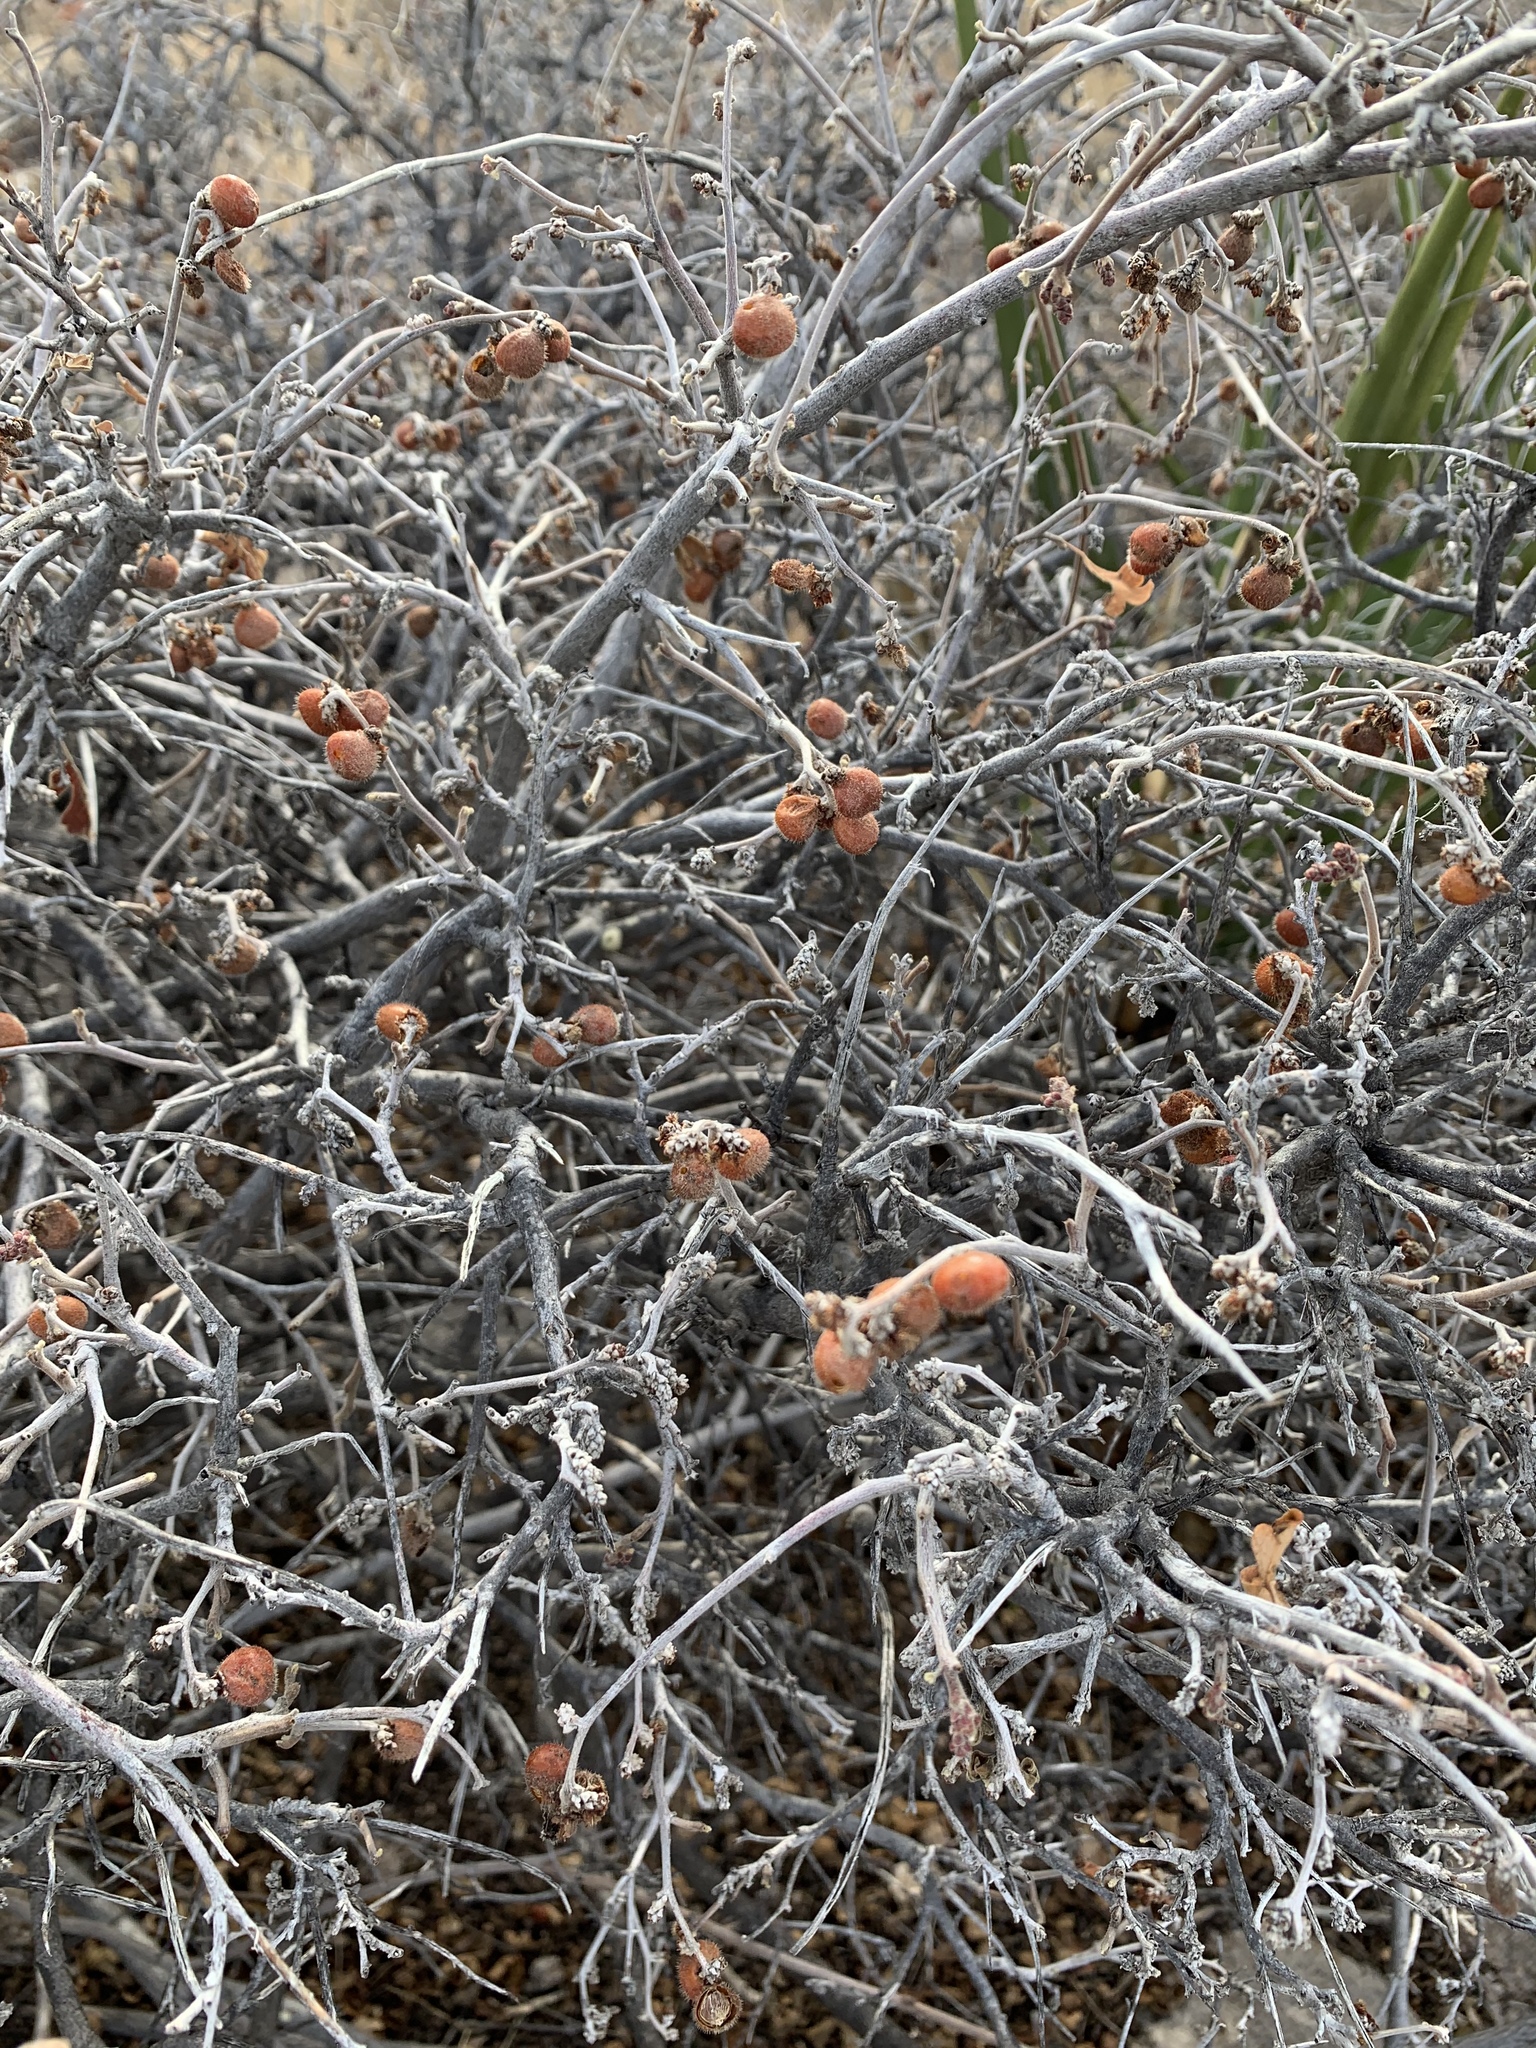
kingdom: Plantae
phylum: Tracheophyta
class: Magnoliopsida
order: Sapindales
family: Anacardiaceae
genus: Rhus
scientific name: Rhus microphylla
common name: Desert sumac
